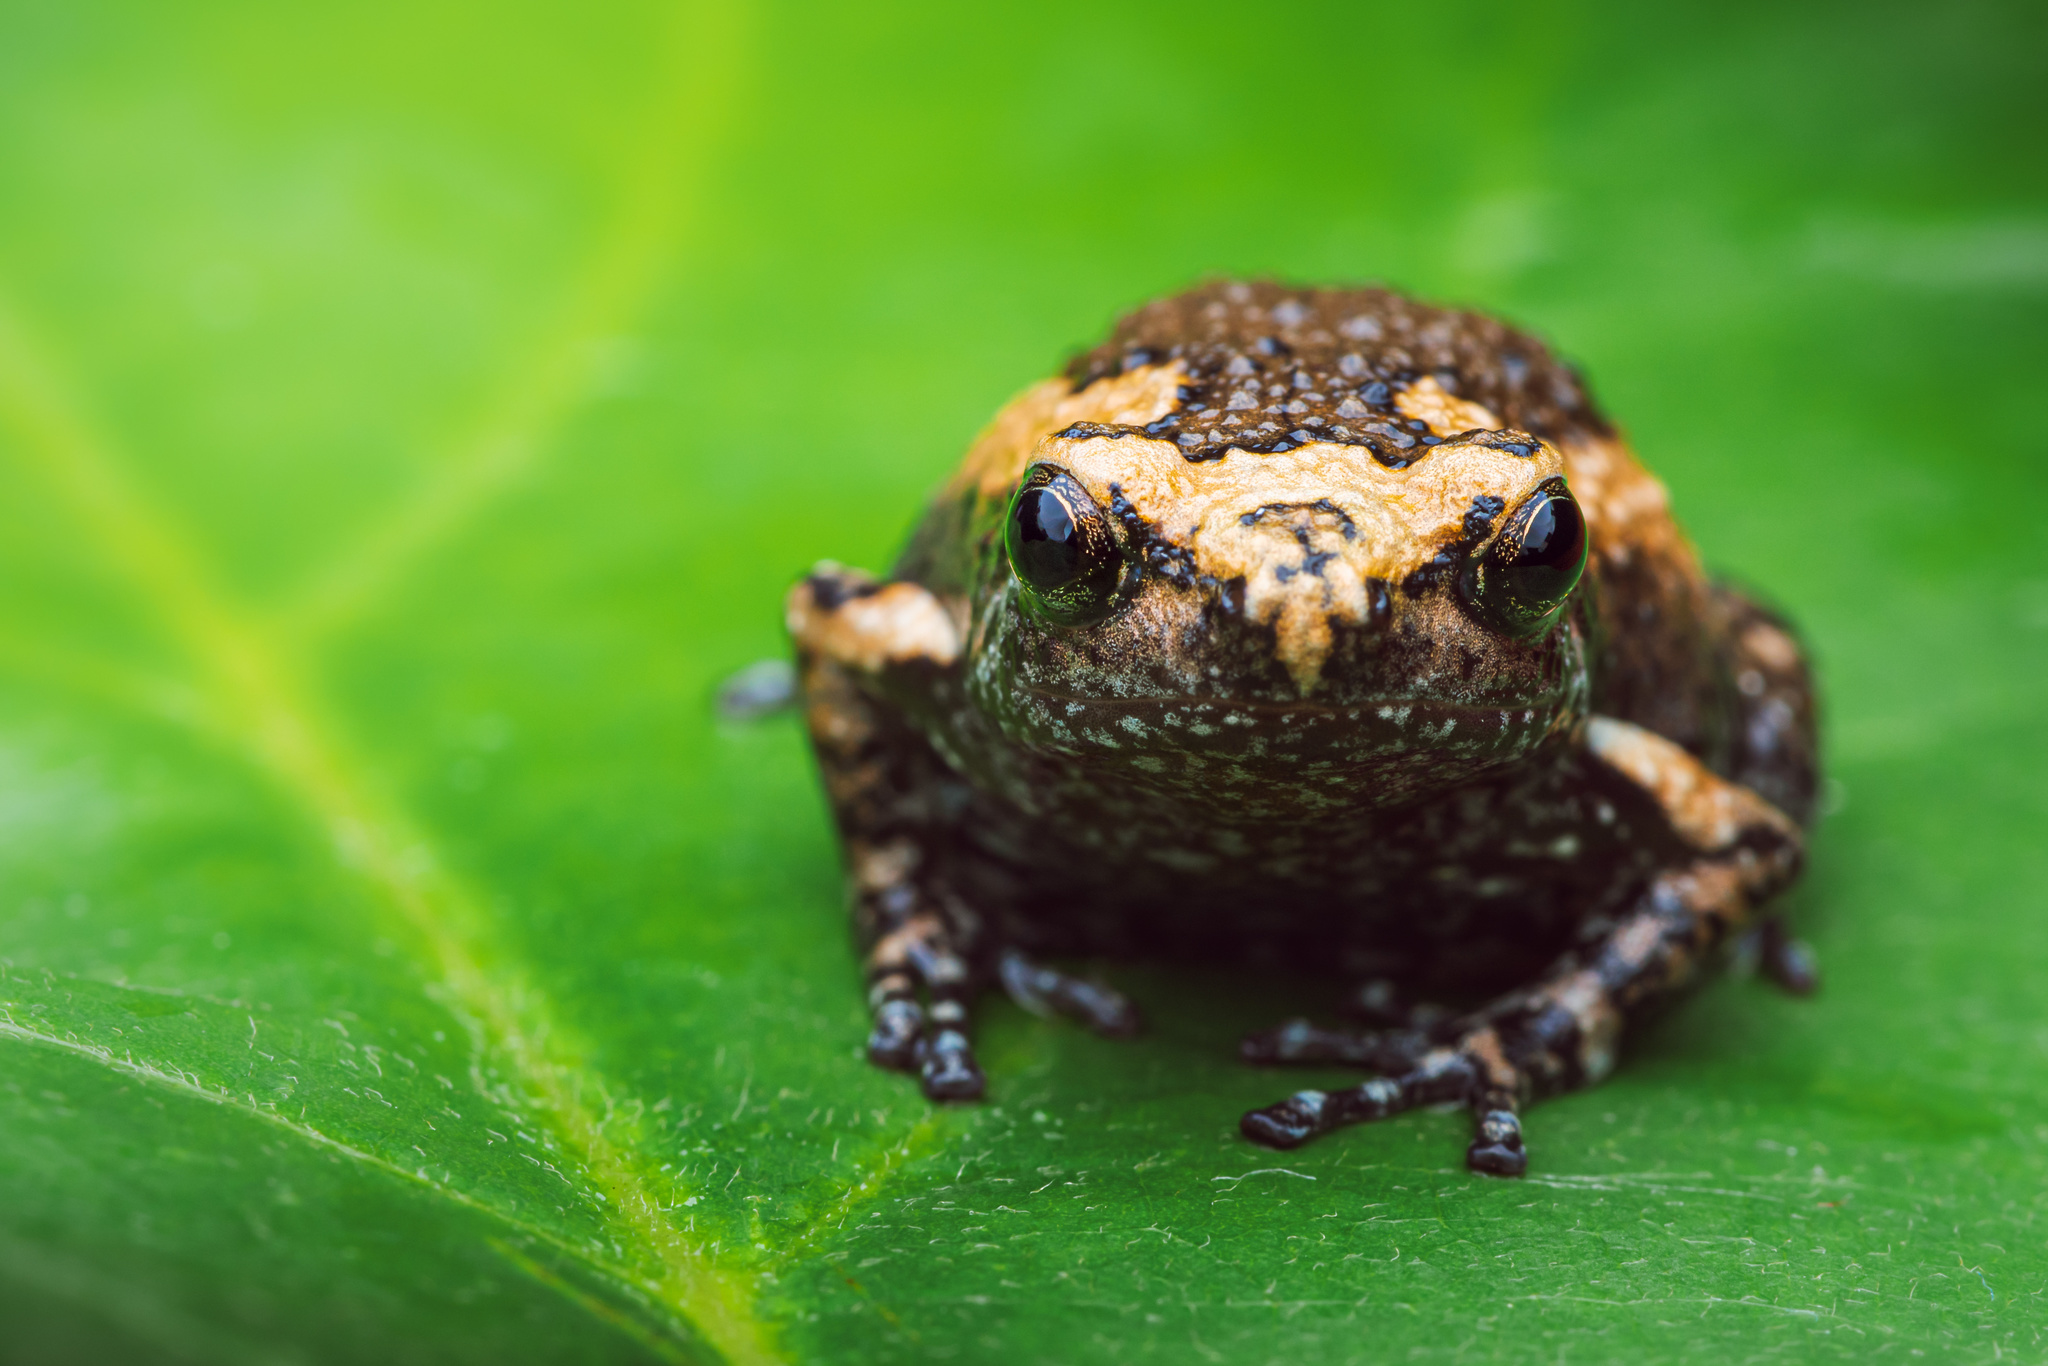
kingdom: Animalia
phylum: Chordata
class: Amphibia
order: Anura
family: Microhylidae
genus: Kaloula
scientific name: Kaloula pulchra
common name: Common,banded bullfrog
